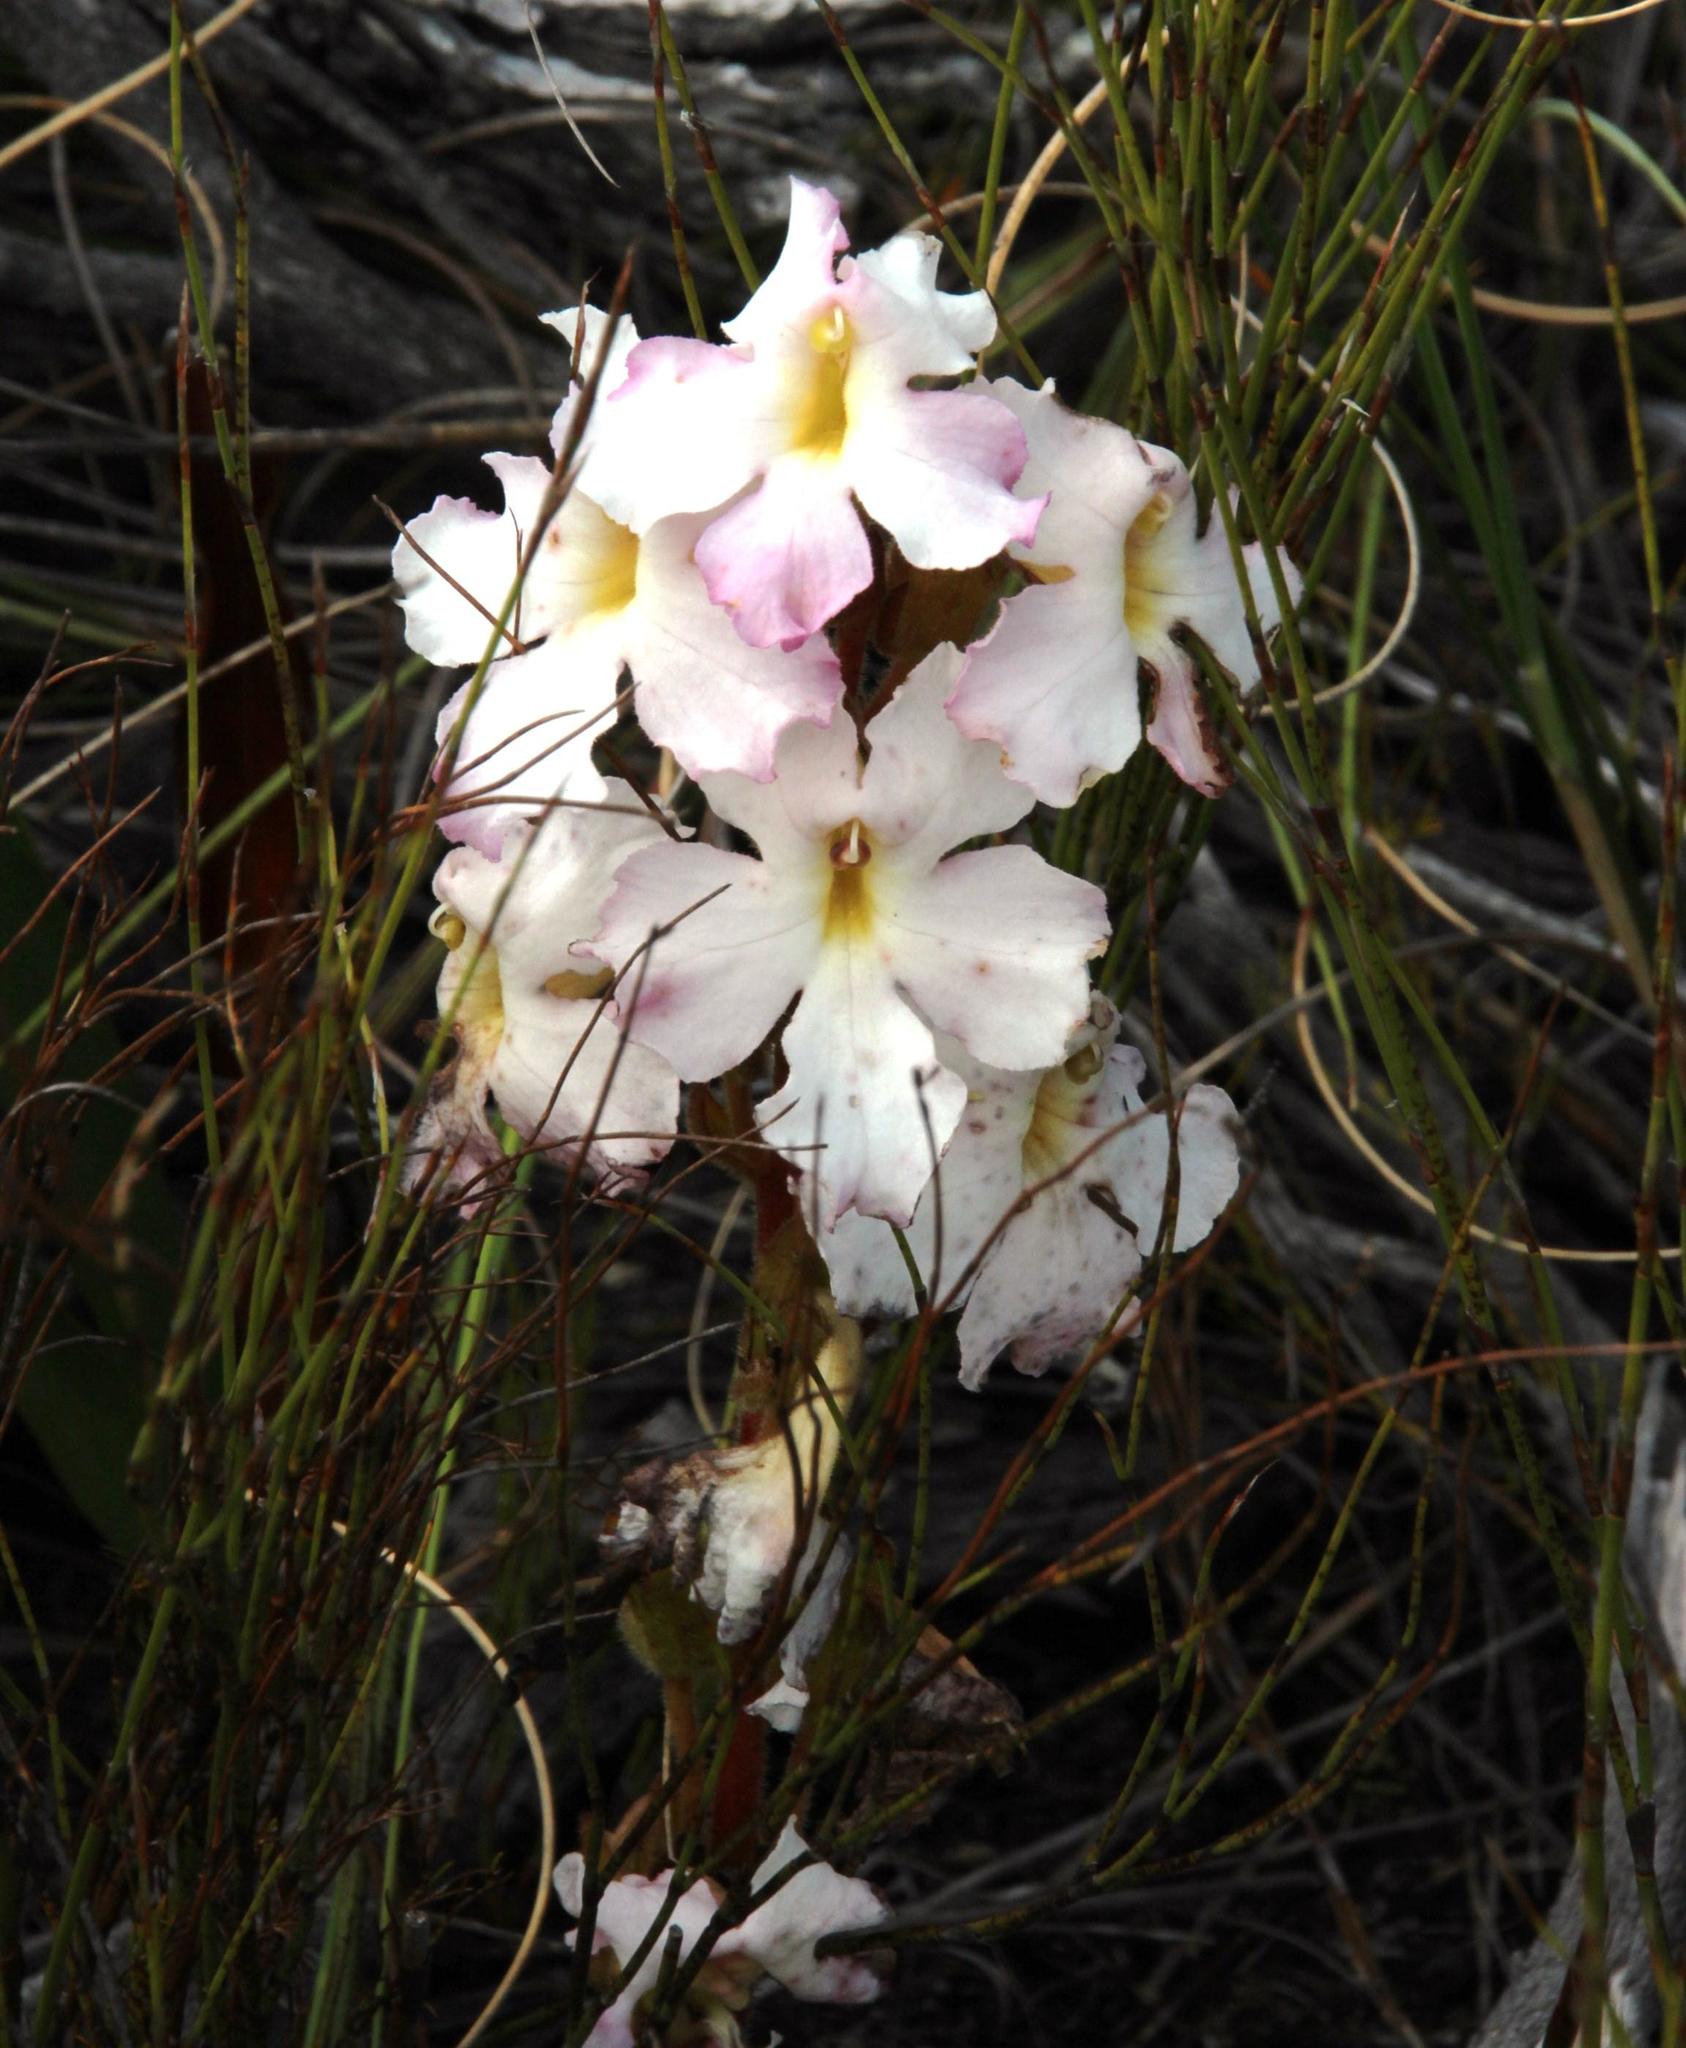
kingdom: Plantae
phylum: Tracheophyta
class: Magnoliopsida
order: Lamiales
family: Orobanchaceae
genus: Harveya
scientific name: Harveya capensis
